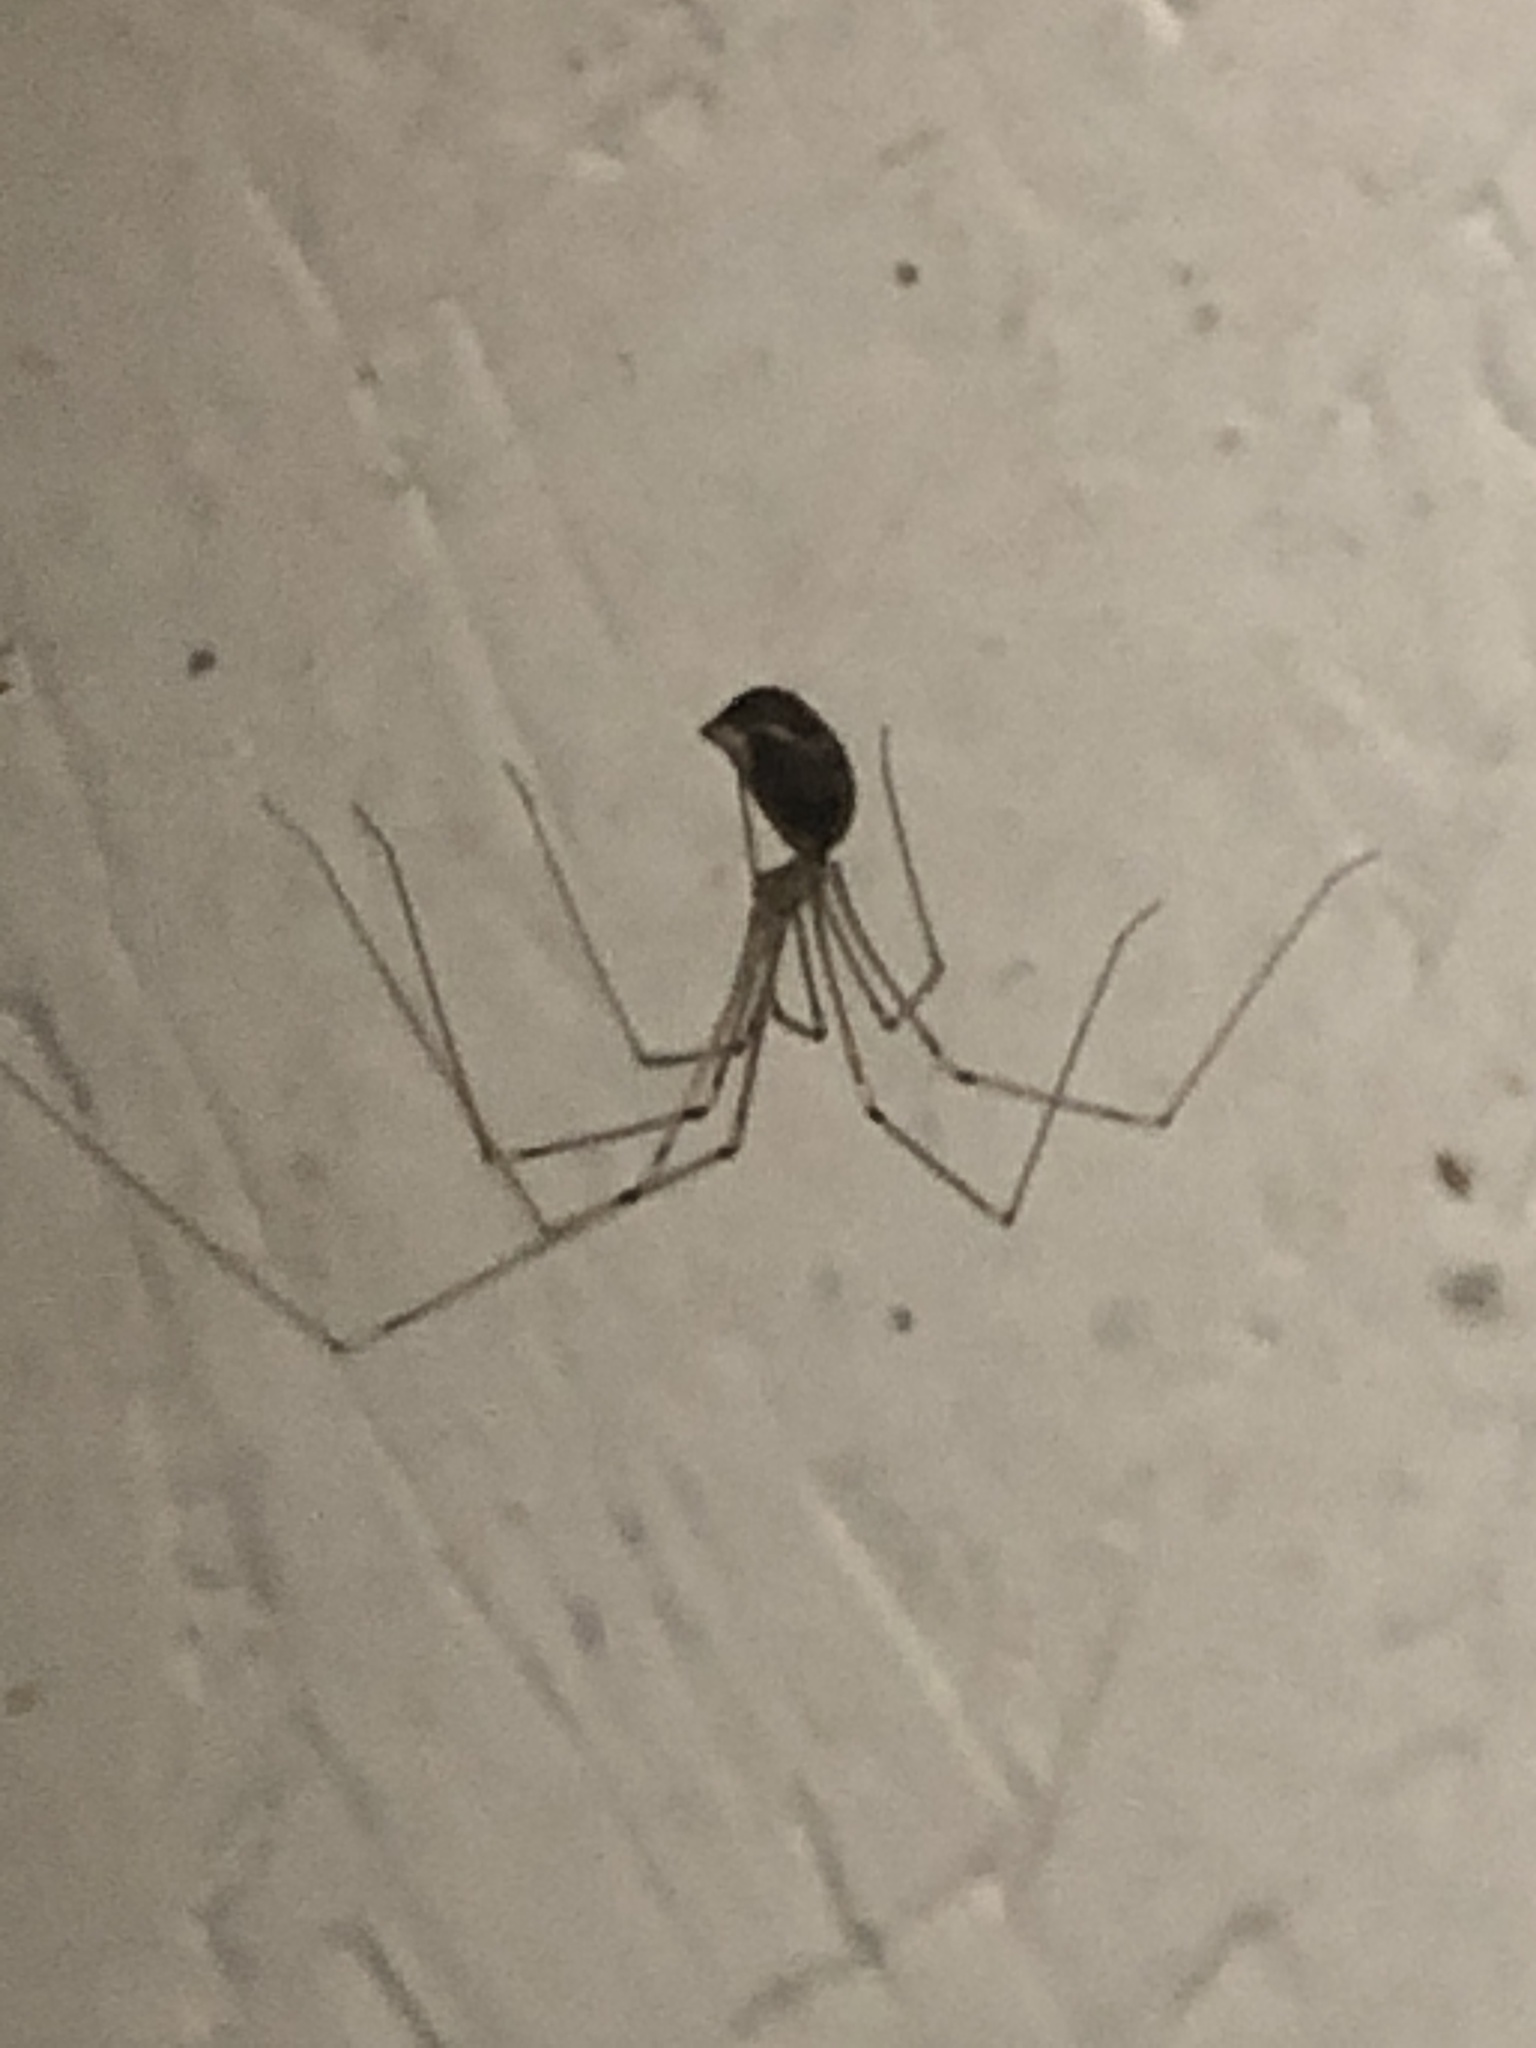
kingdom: Animalia
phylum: Arthropoda
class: Arachnida
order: Araneae
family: Pholcidae
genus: Pholcus
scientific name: Pholcus phalangioides
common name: Longbodied cellar spider
